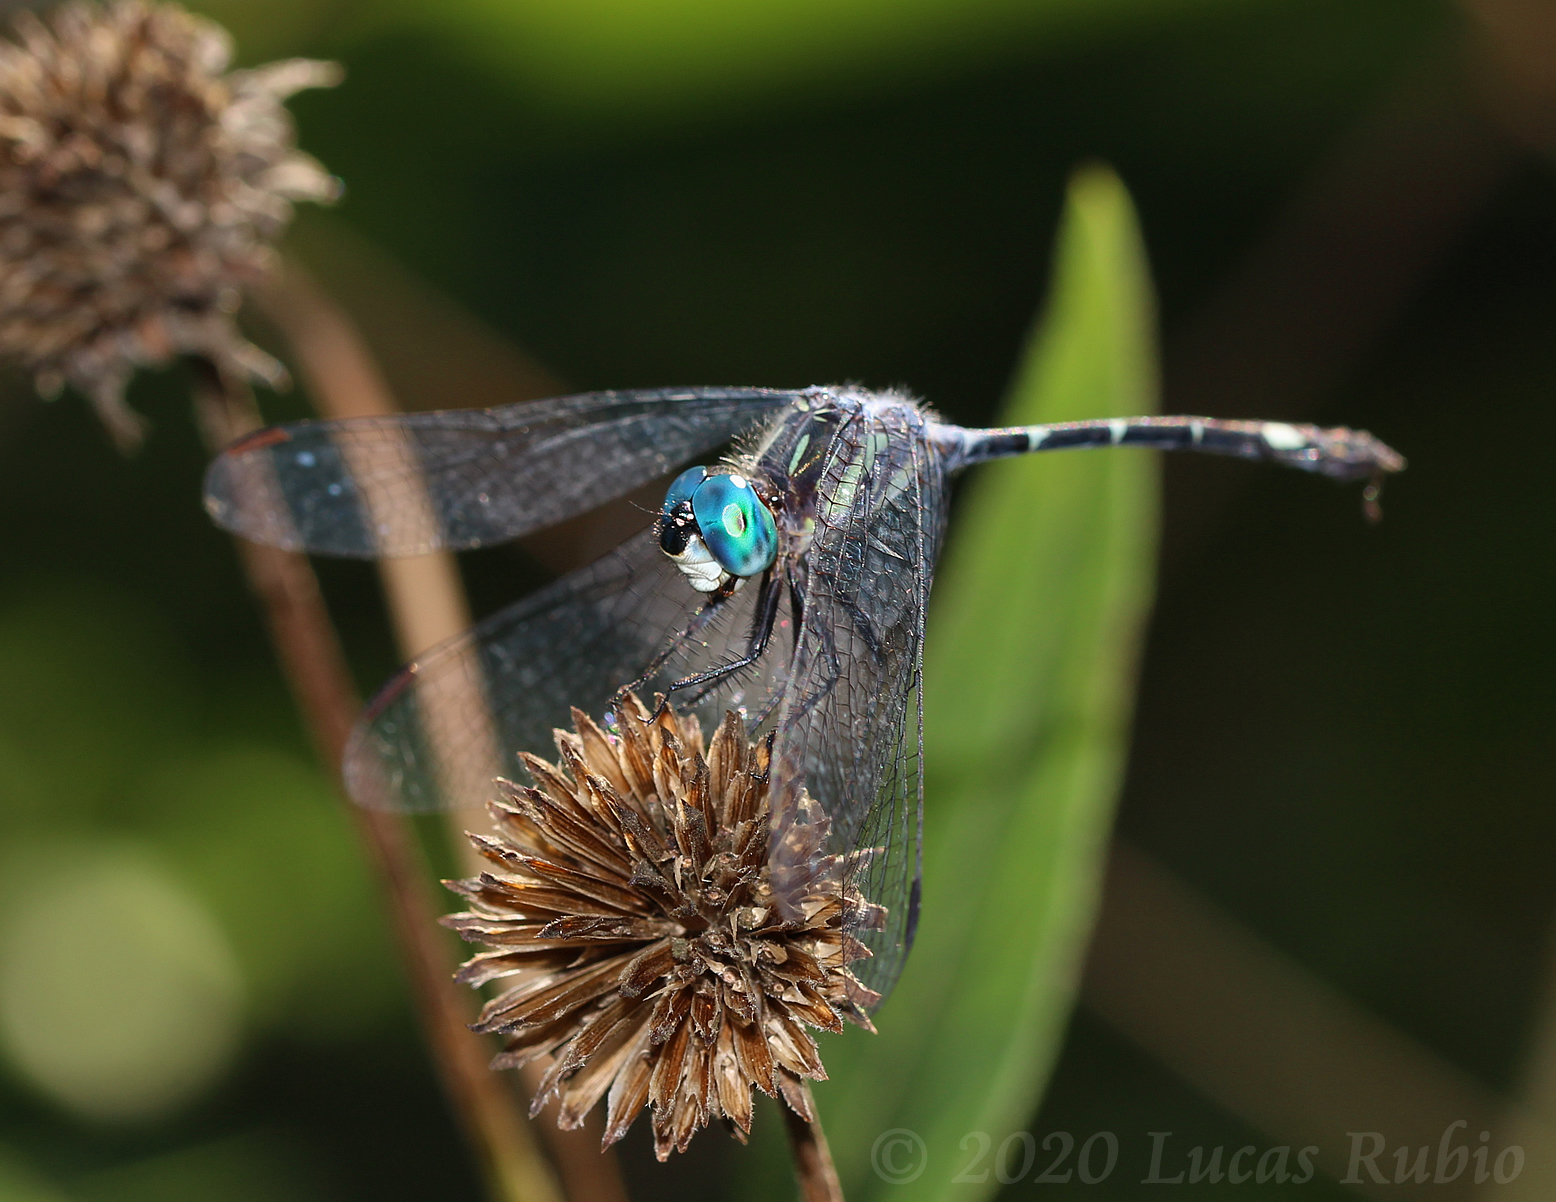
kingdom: Animalia
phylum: Arthropoda
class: Insecta
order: Odonata
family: Libellulidae
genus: Micrathyria
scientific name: Micrathyria hypodidyma
